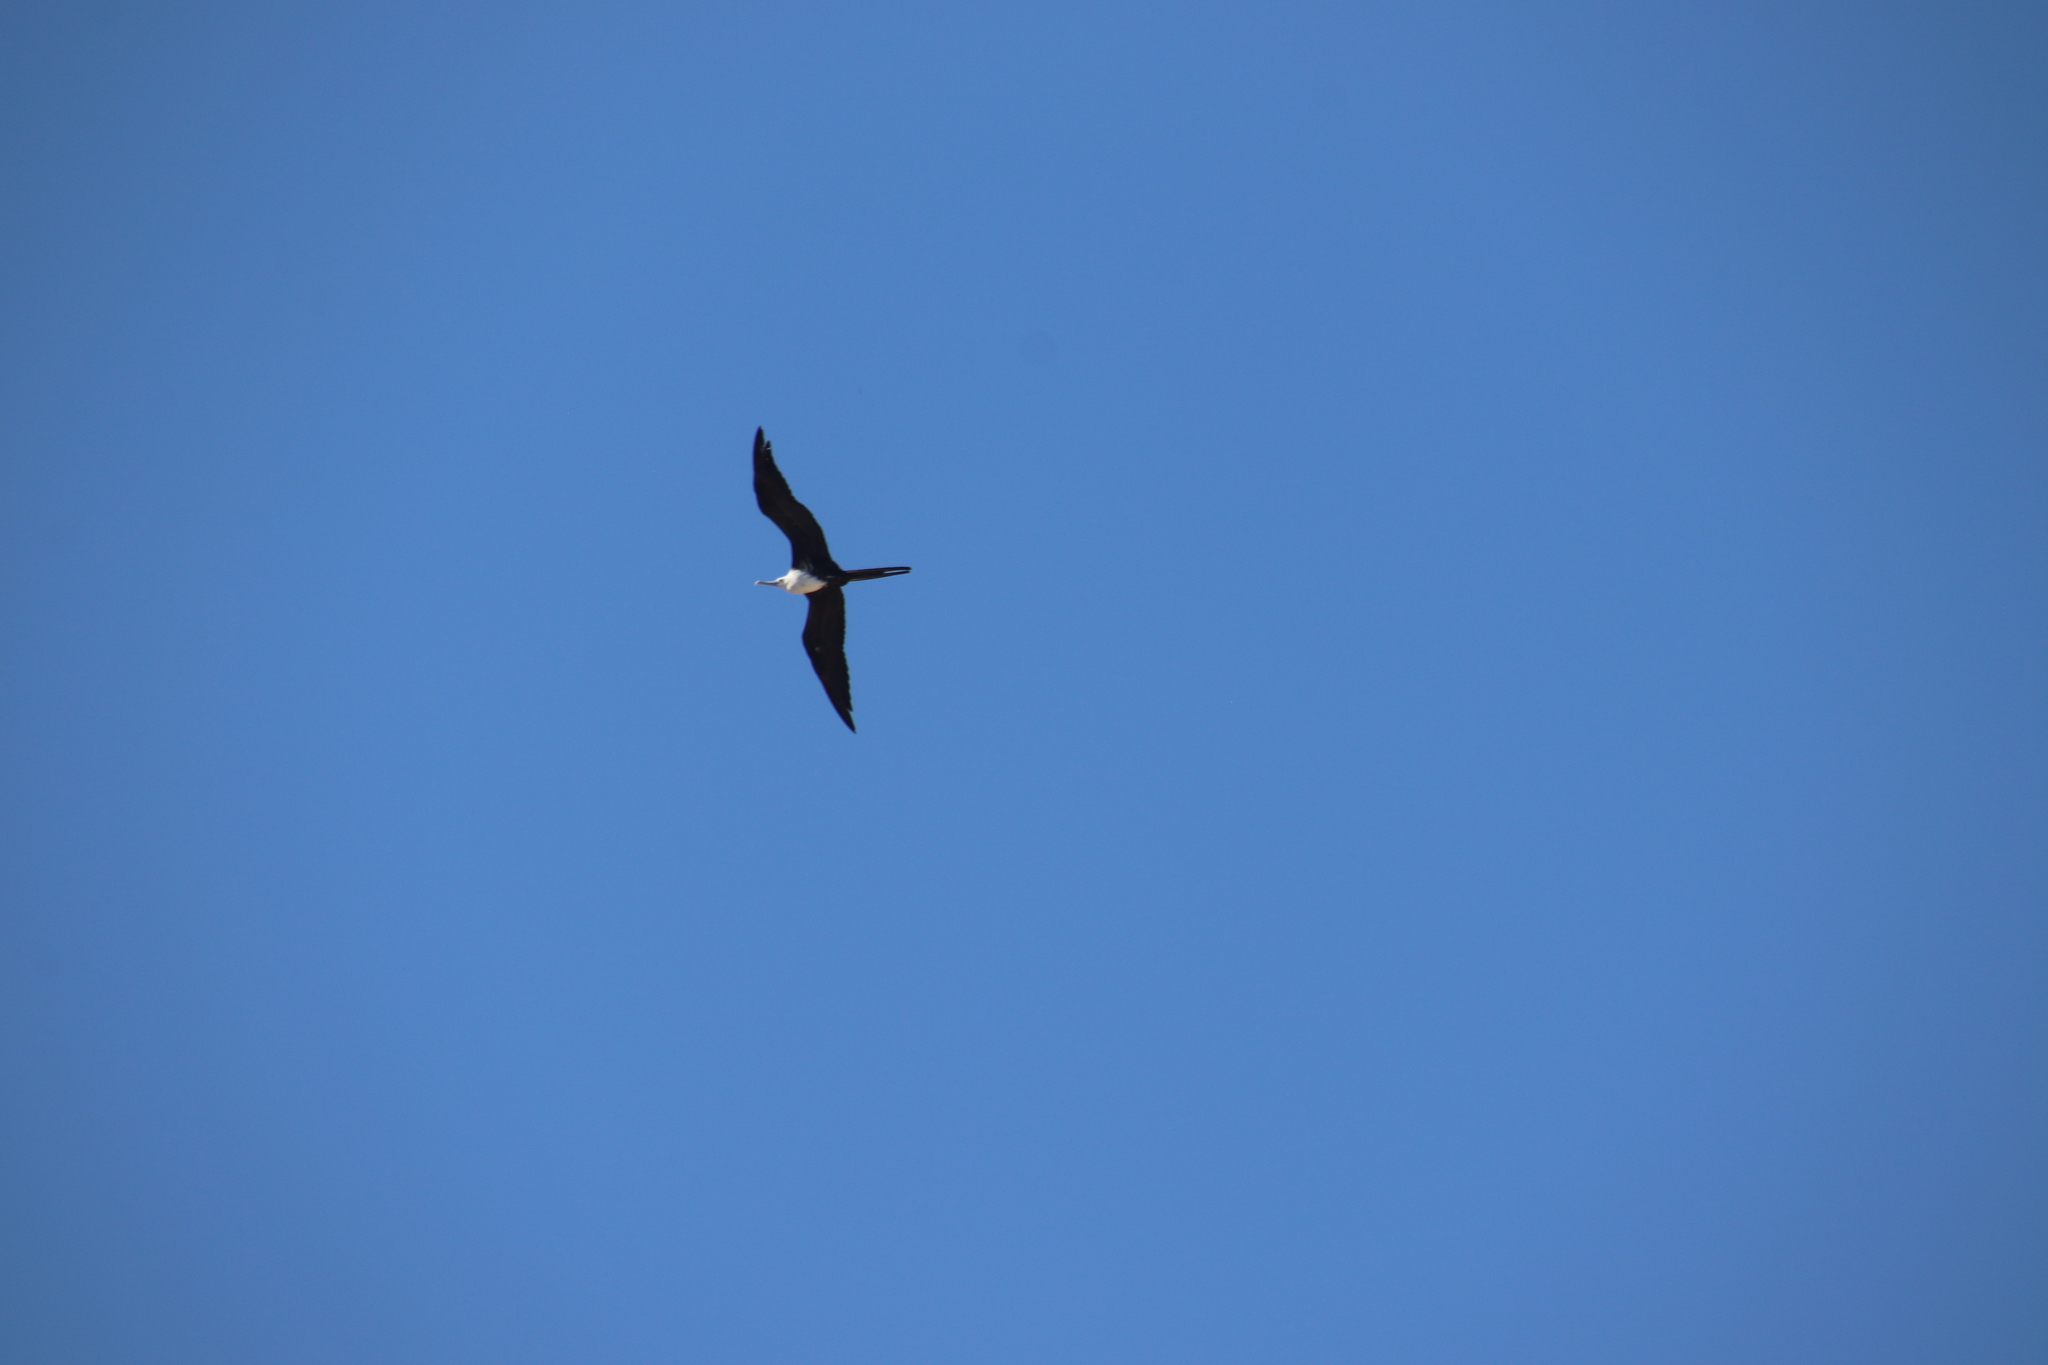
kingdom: Animalia
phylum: Chordata
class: Aves
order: Suliformes
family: Fregatidae
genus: Fregata
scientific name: Fregata magnificens
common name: Magnificent frigatebird
